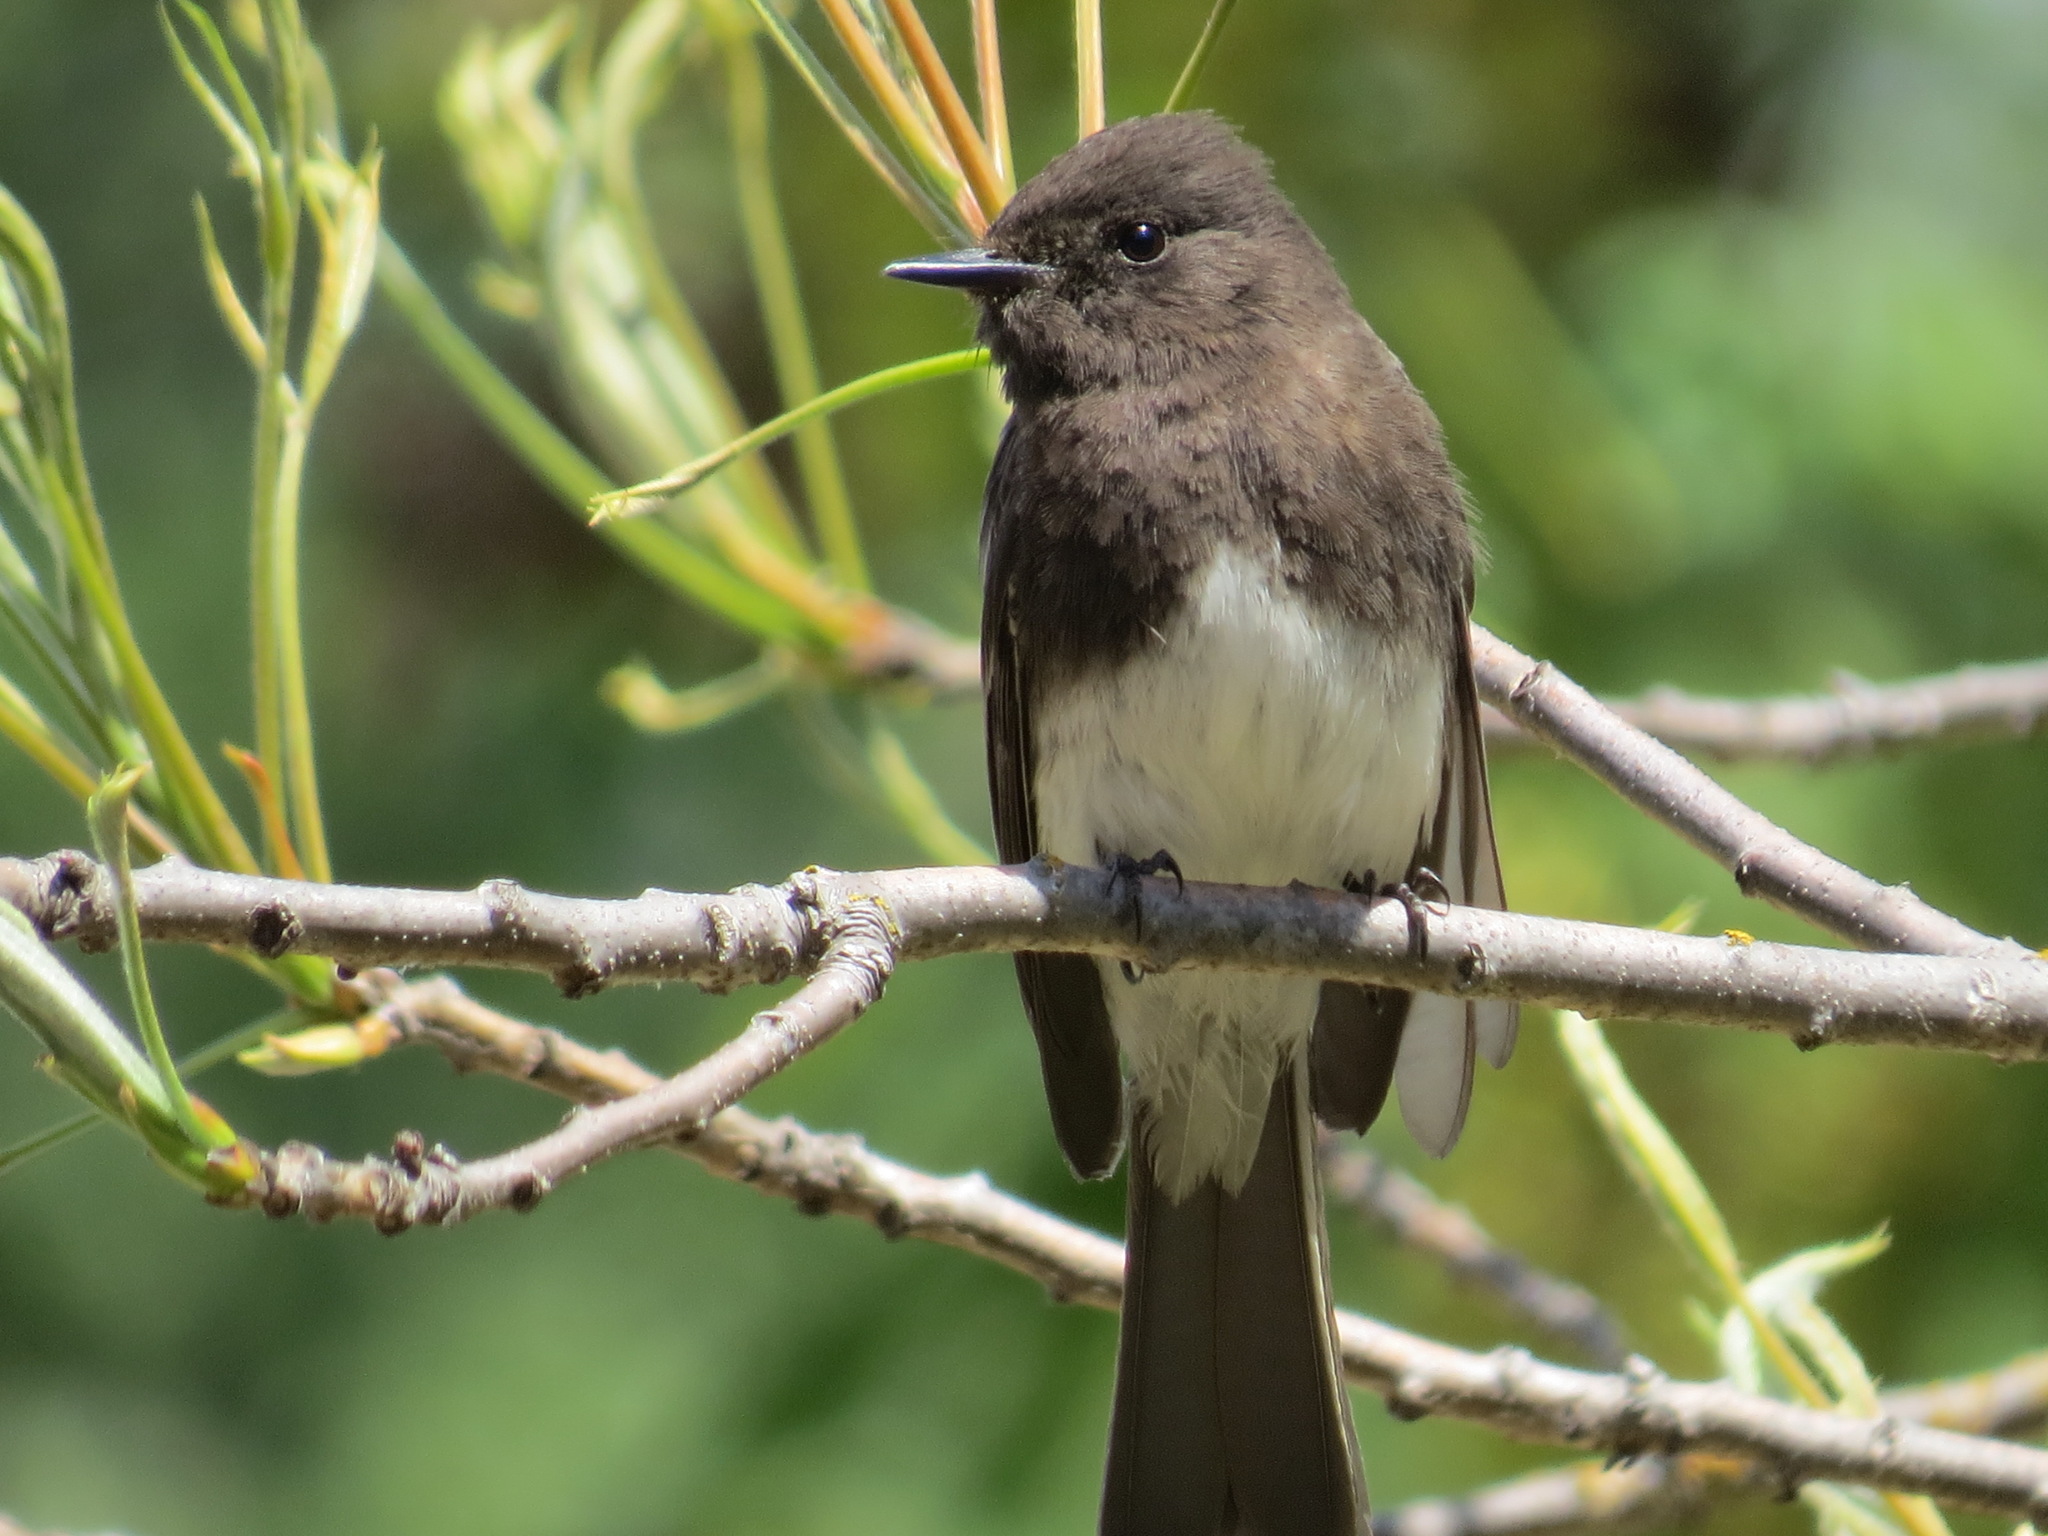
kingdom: Animalia
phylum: Chordata
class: Aves
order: Passeriformes
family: Tyrannidae
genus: Sayornis
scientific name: Sayornis nigricans
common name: Black phoebe
